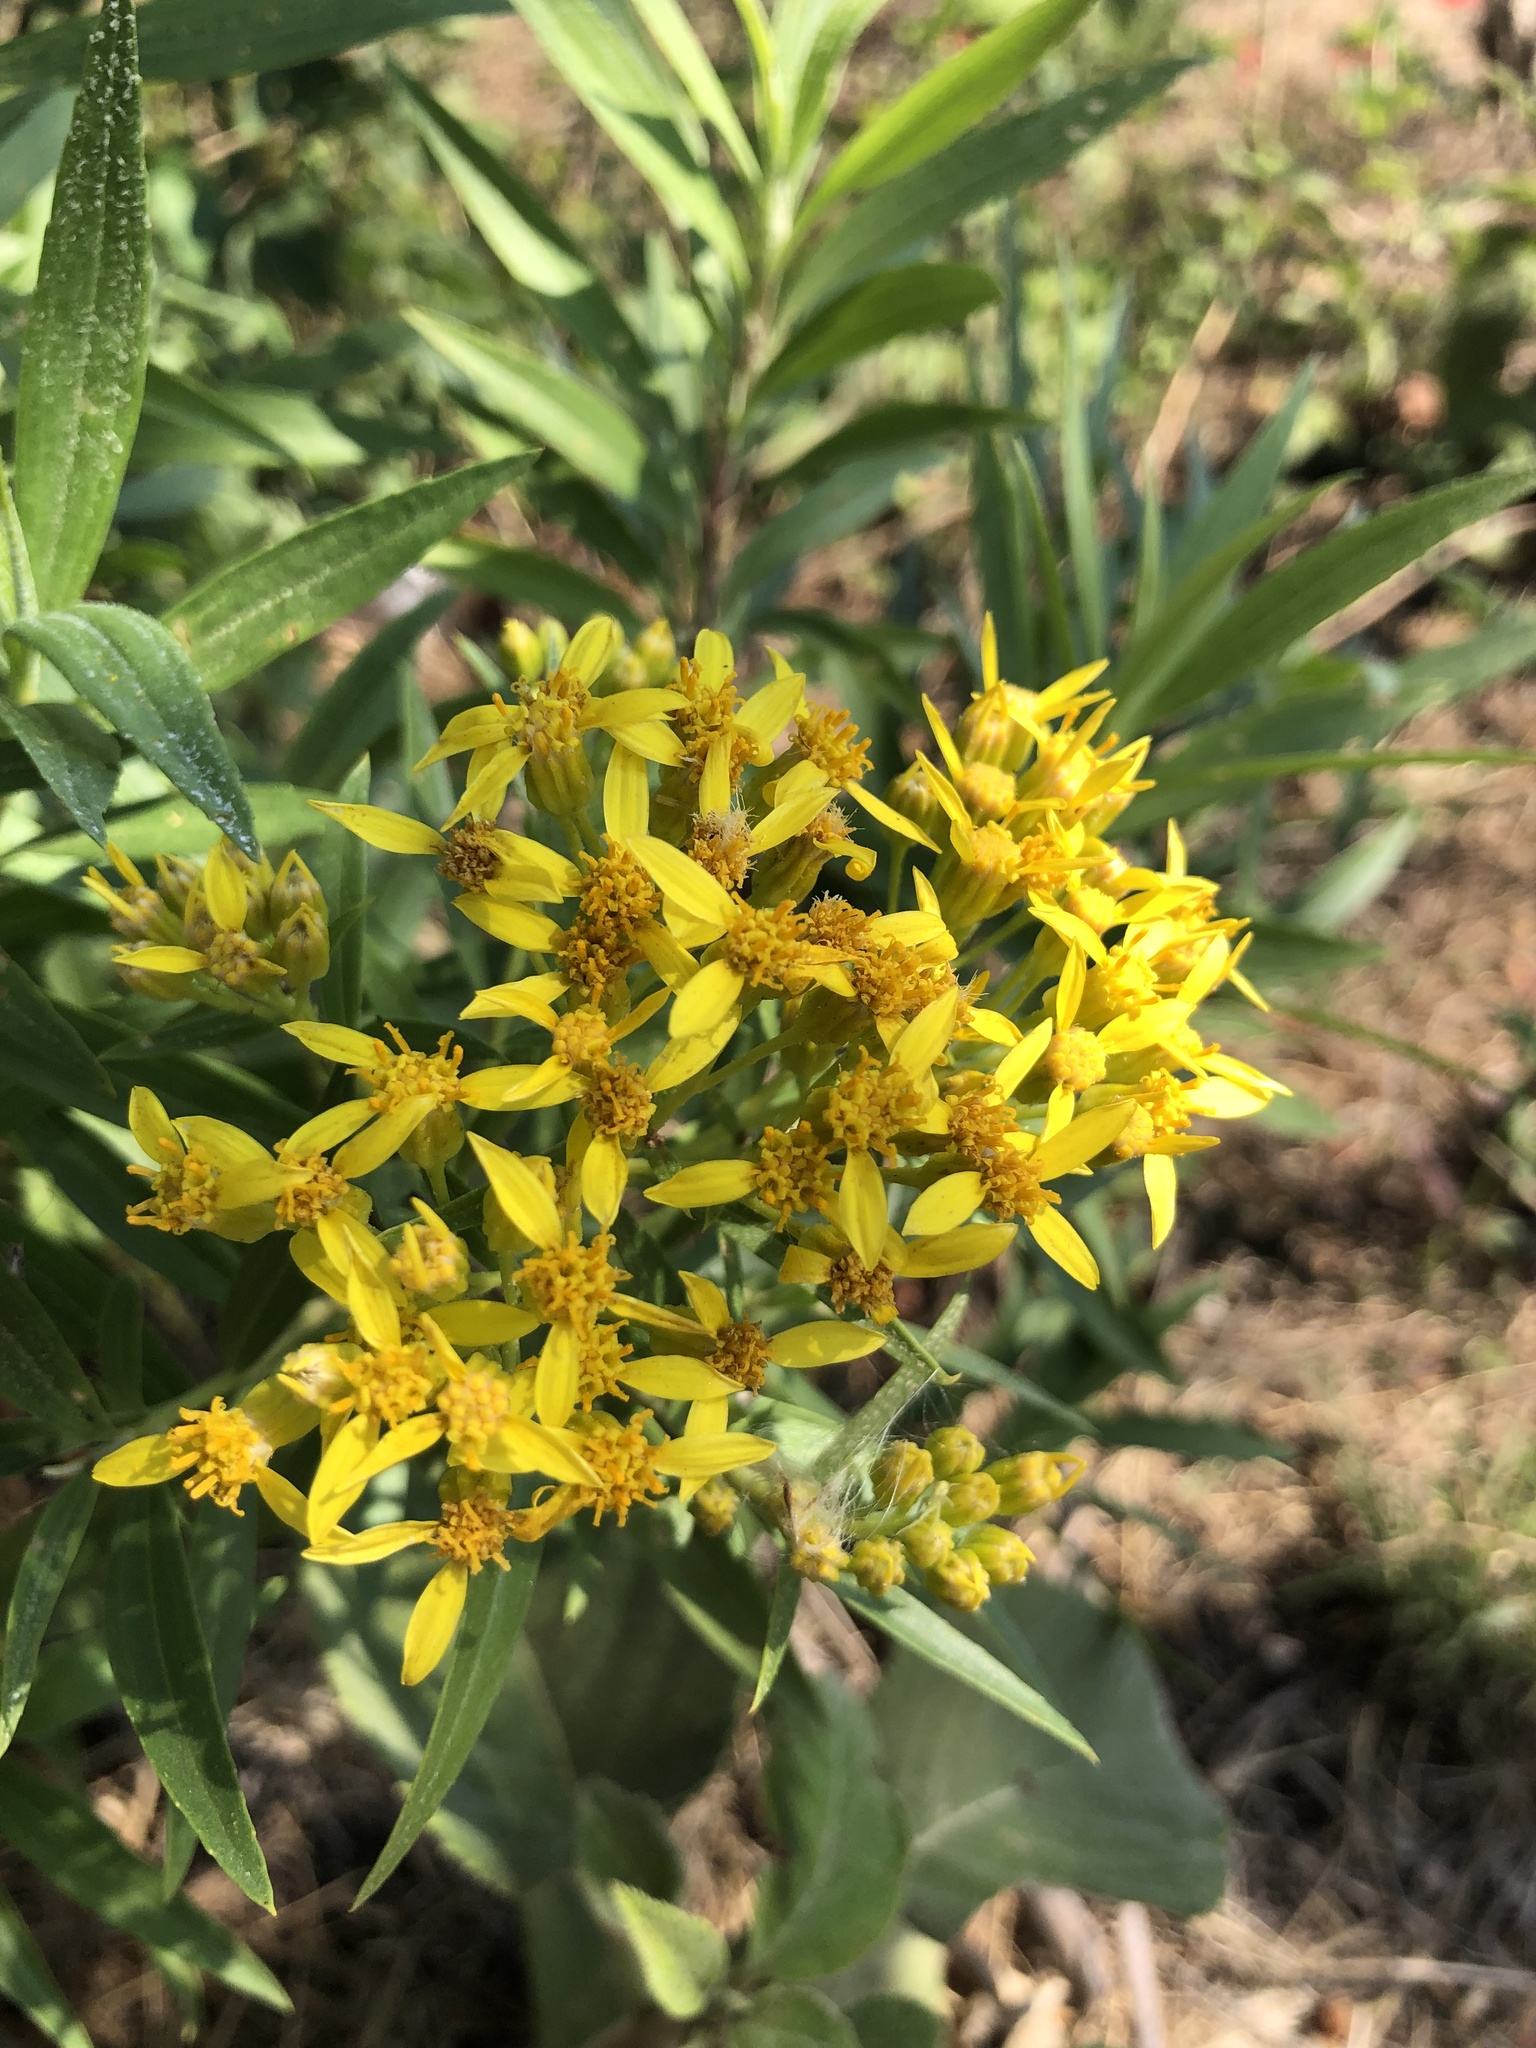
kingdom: Plantae
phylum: Tracheophyta
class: Magnoliopsida
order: Asterales
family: Asteraceae
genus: Barkleyanthus
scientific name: Barkleyanthus salicifolius
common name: Willow ragwort
